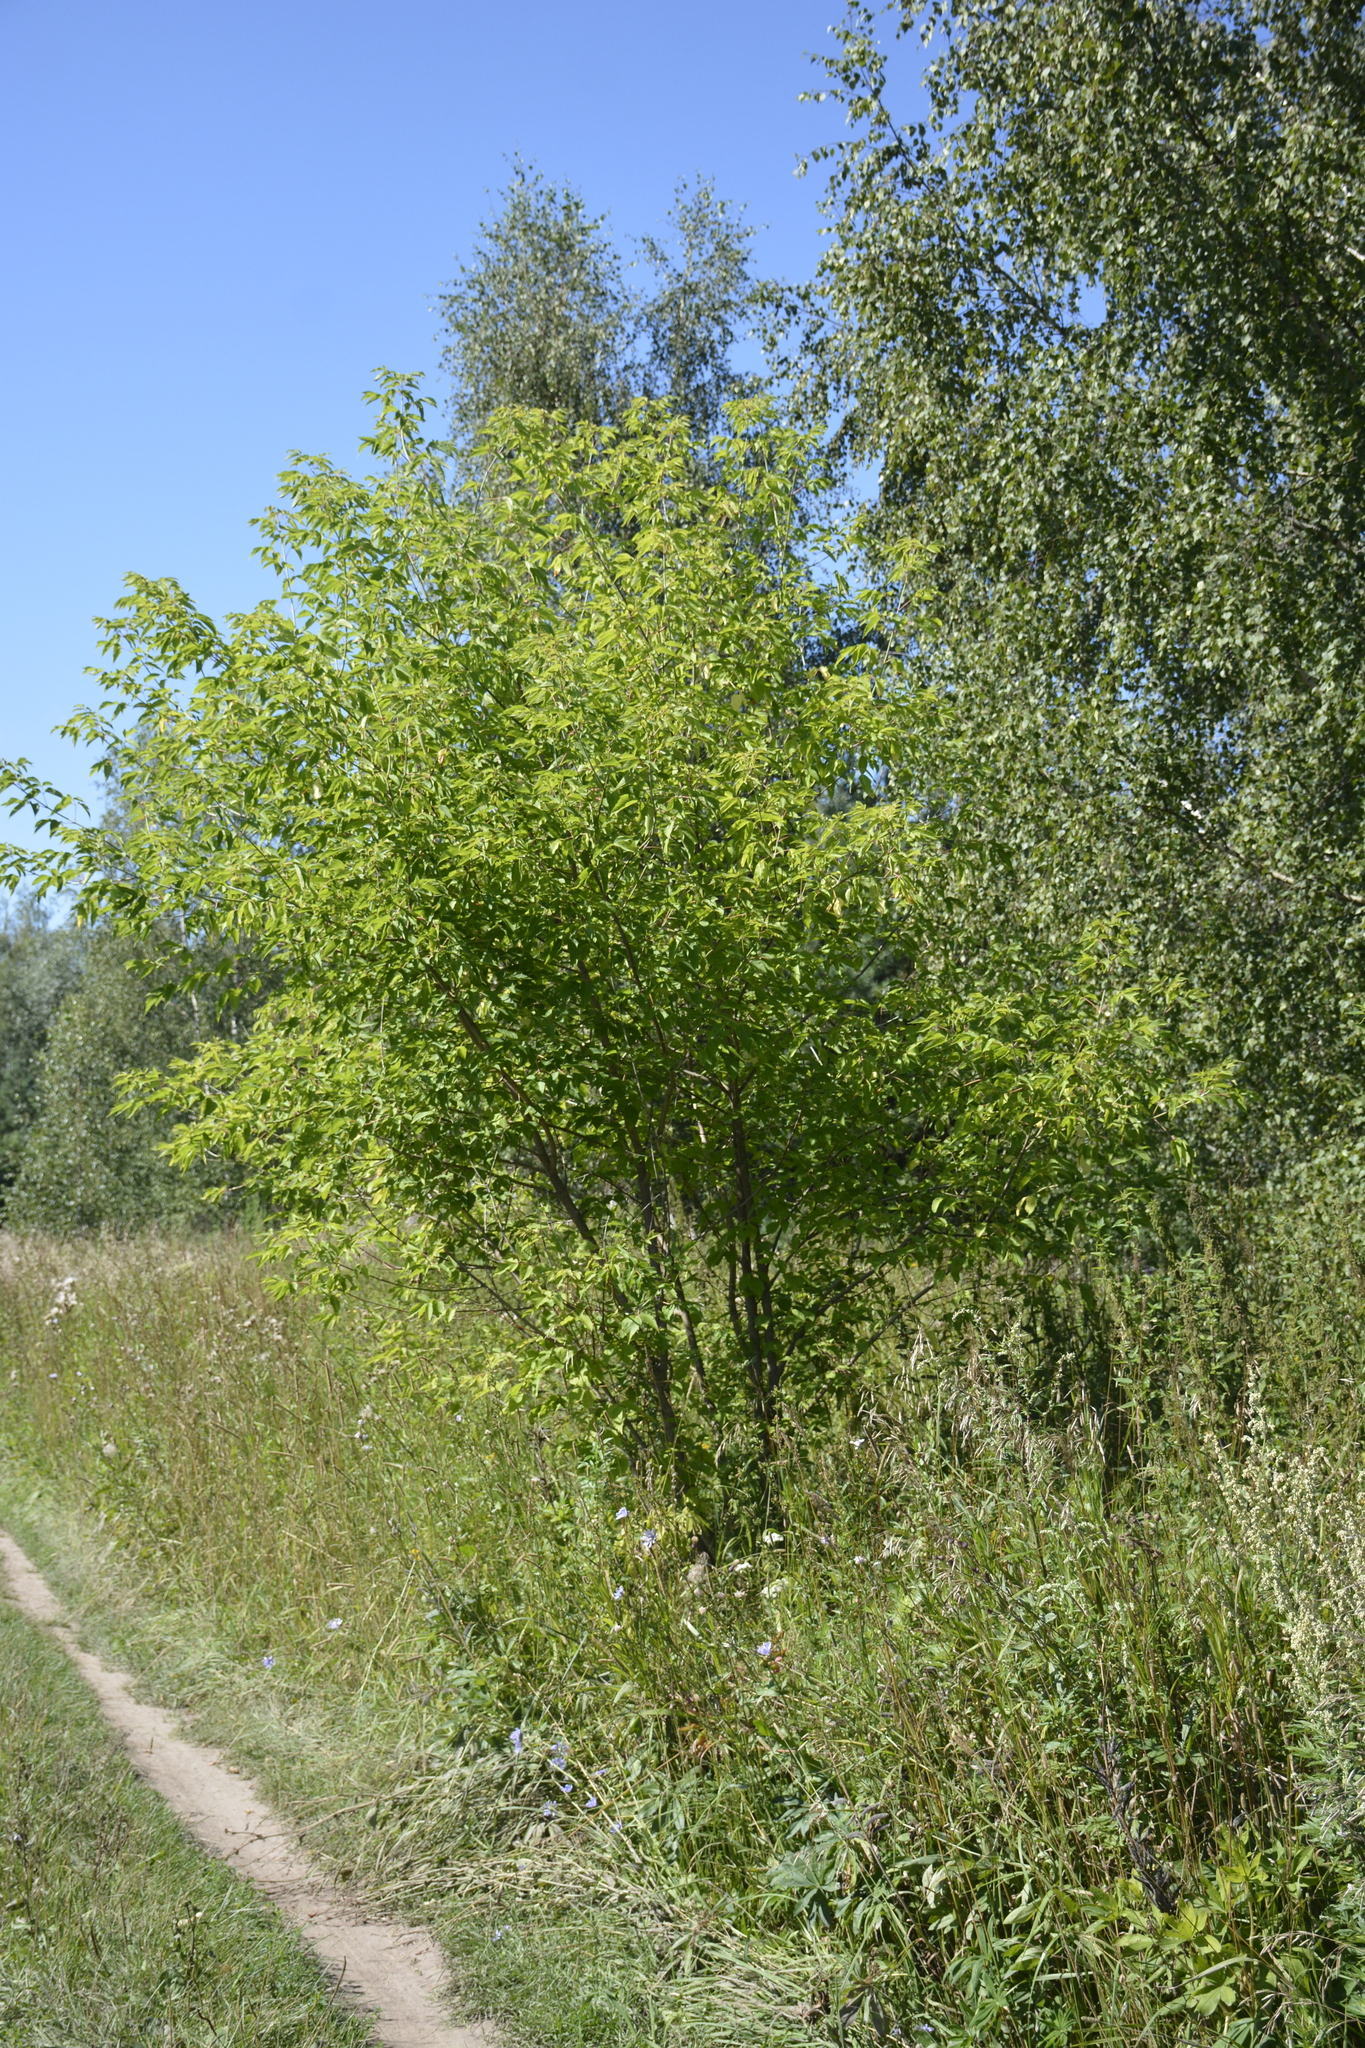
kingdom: Plantae
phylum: Tracheophyta
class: Magnoliopsida
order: Sapindales
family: Sapindaceae
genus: Acer
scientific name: Acer negundo
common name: Ashleaf maple
